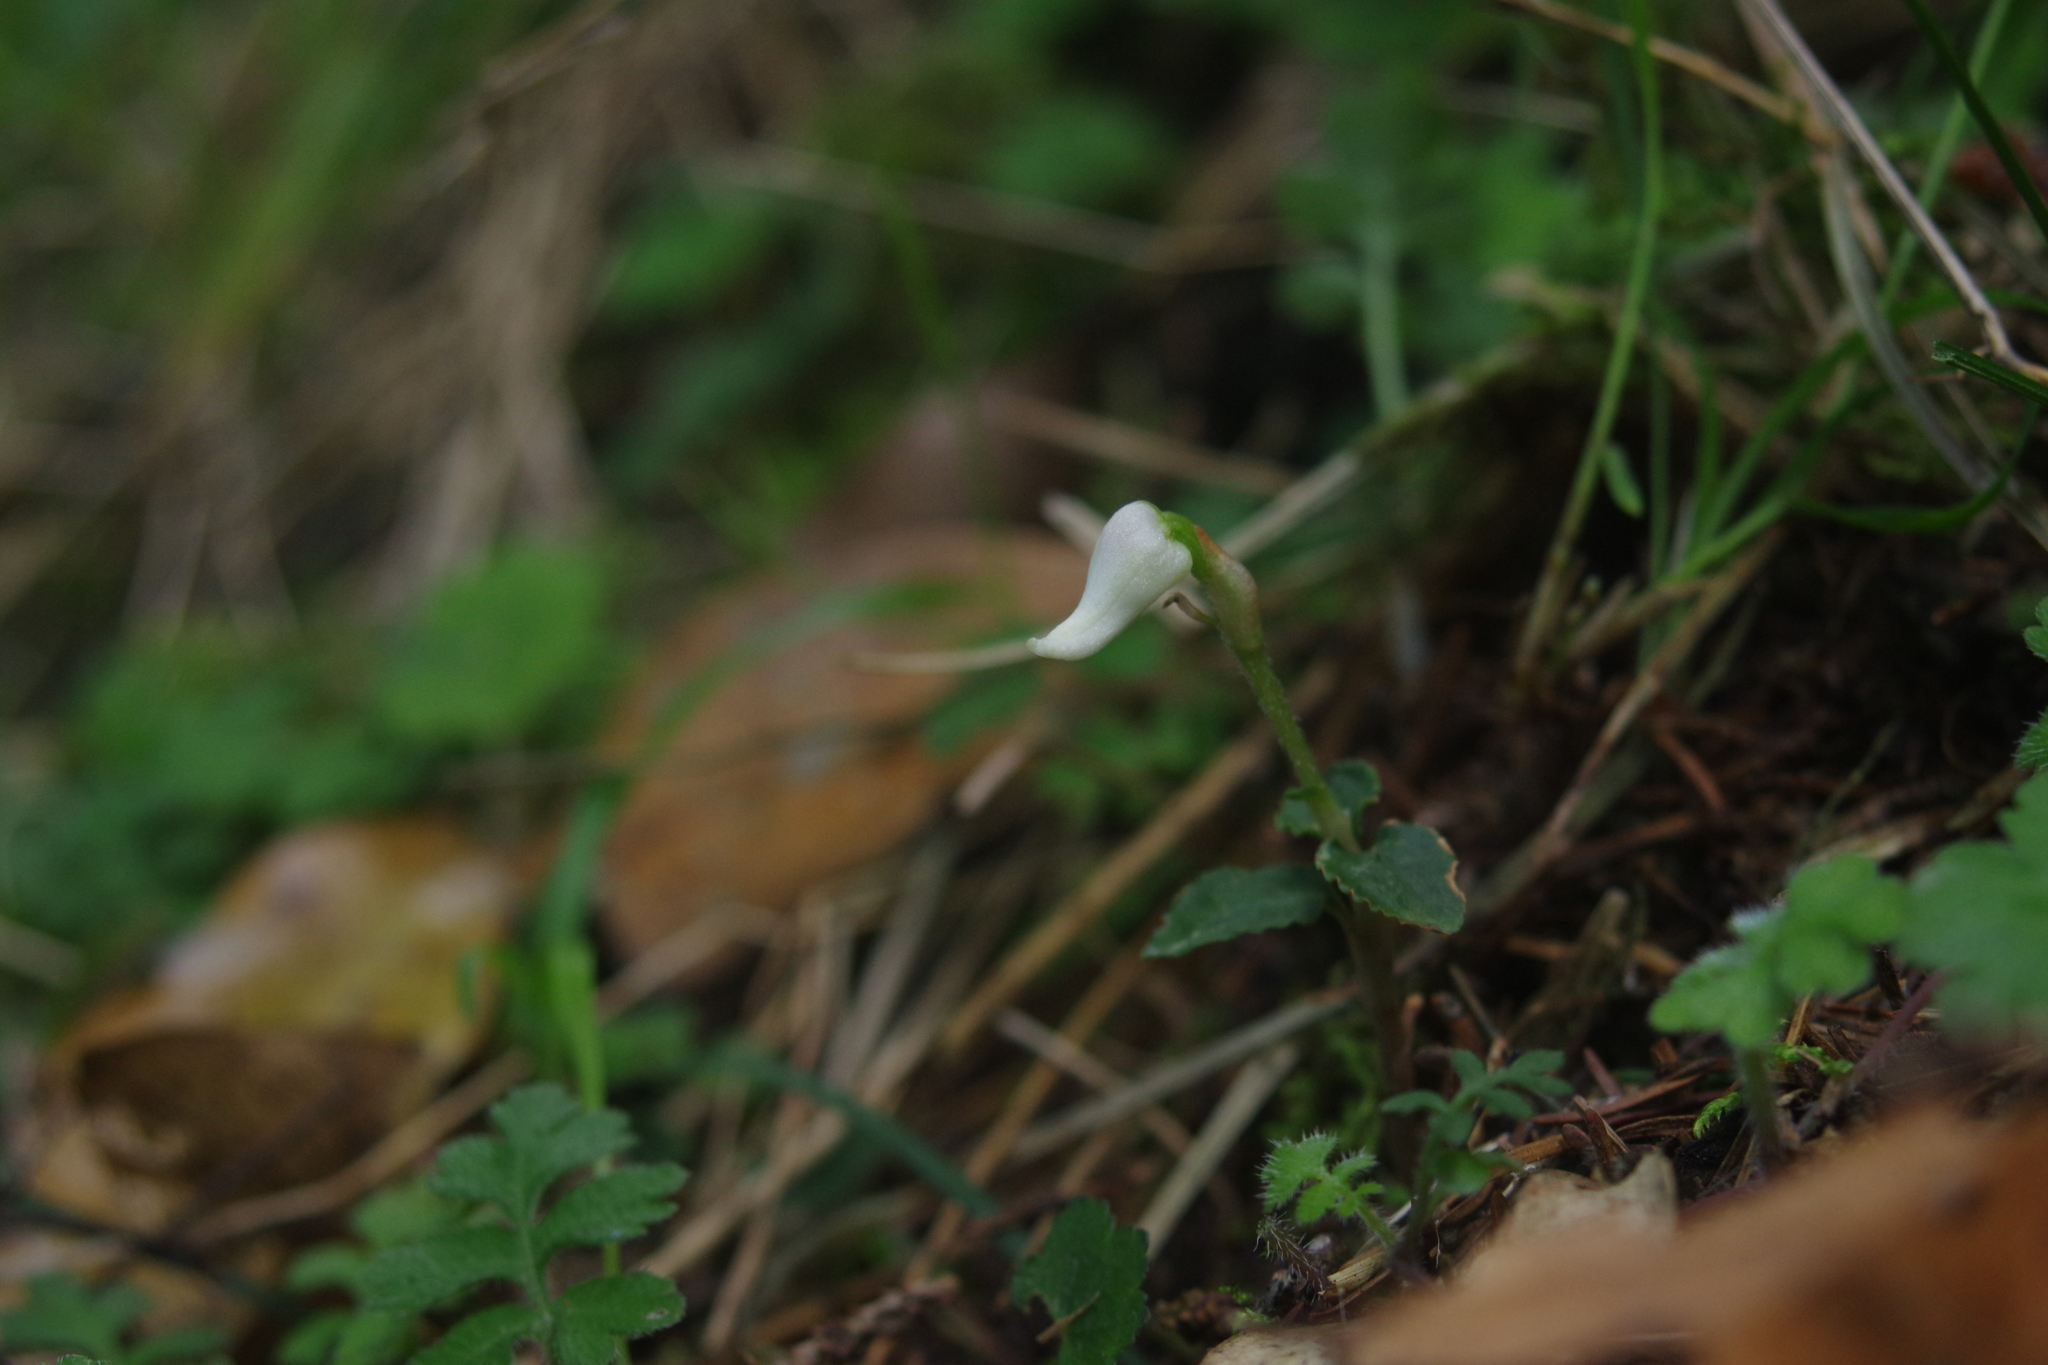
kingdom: Plantae
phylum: Tracheophyta
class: Liliopsida
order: Asparagales
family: Orchidaceae
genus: Odontochilus
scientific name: Odontochilus drymoglossifolius
